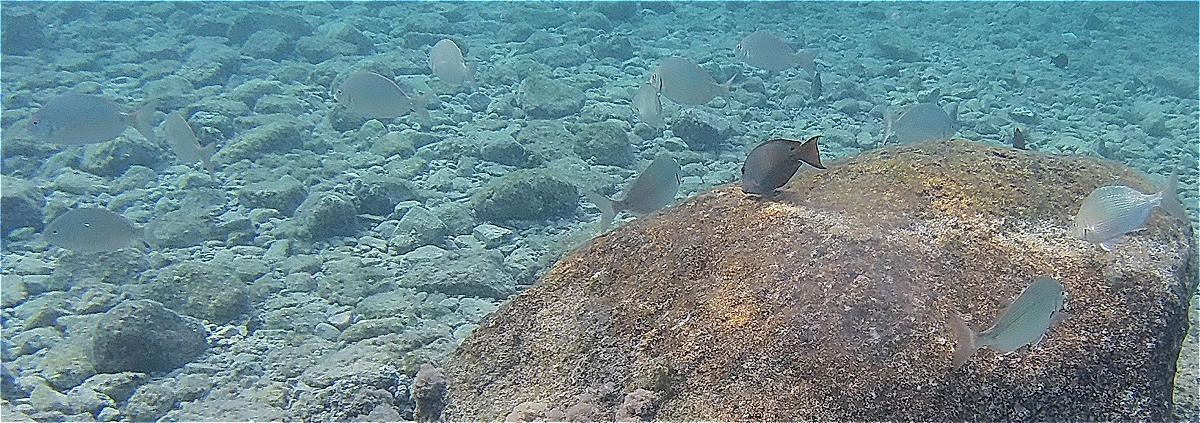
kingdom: Animalia
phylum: Chordata
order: Perciformes
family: Sparidae
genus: Diplodus
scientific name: Diplodus noct
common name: Arabian pinfish
